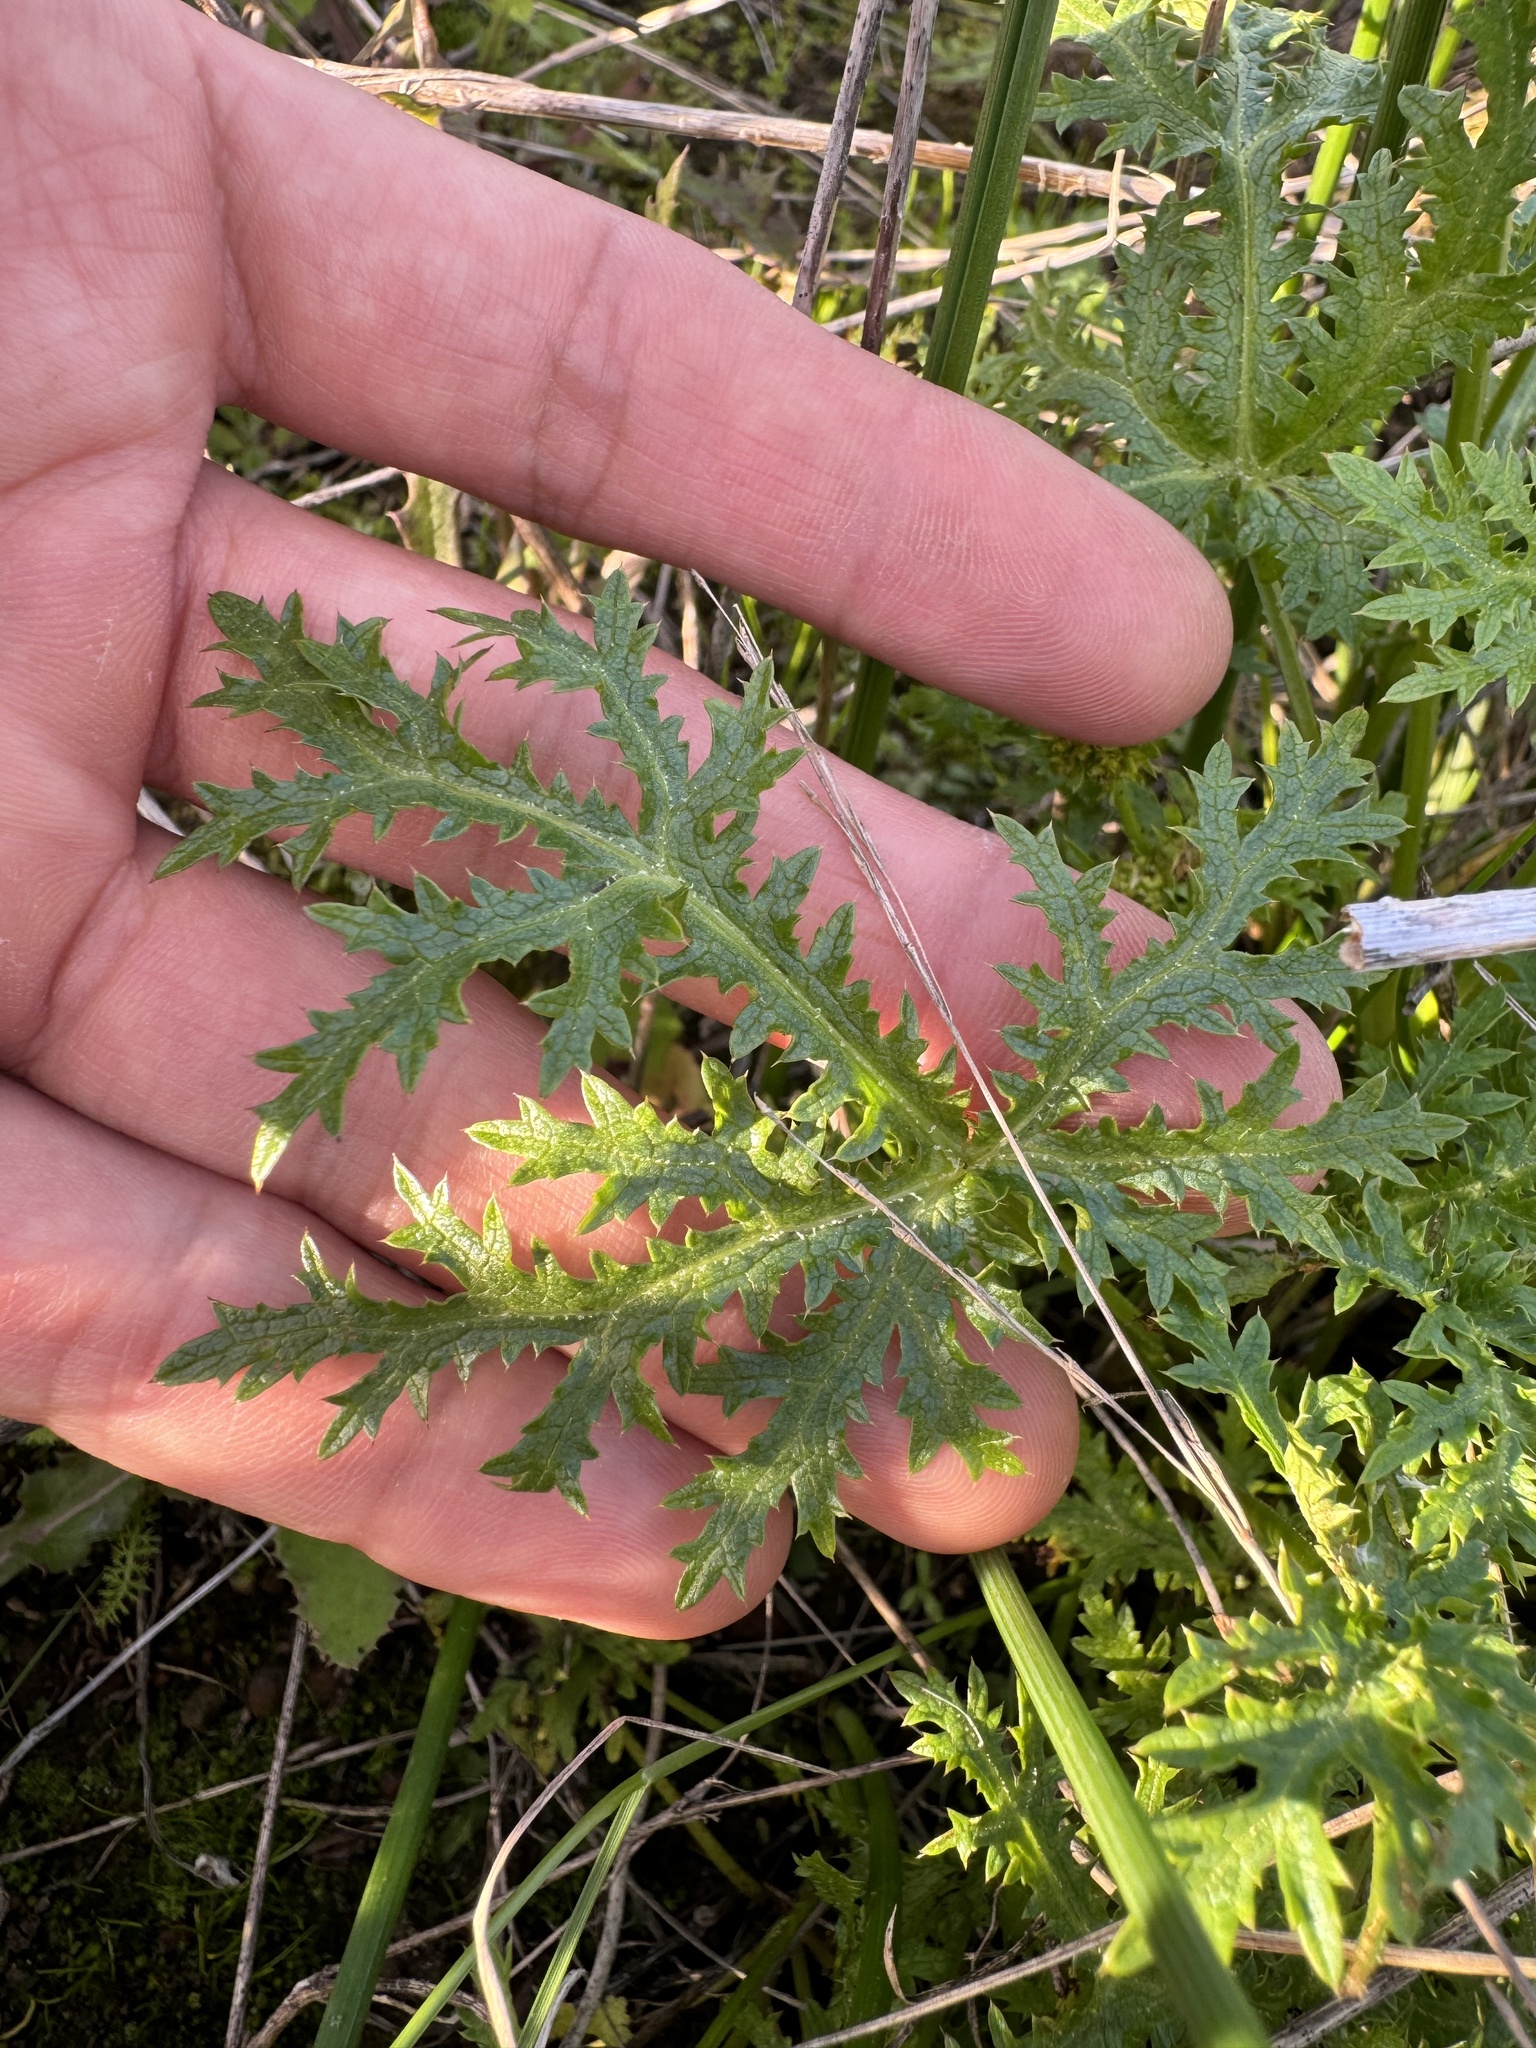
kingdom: Plantae
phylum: Tracheophyta
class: Magnoliopsida
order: Apiales
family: Apiaceae
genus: Sanicula
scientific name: Sanicula arguta
